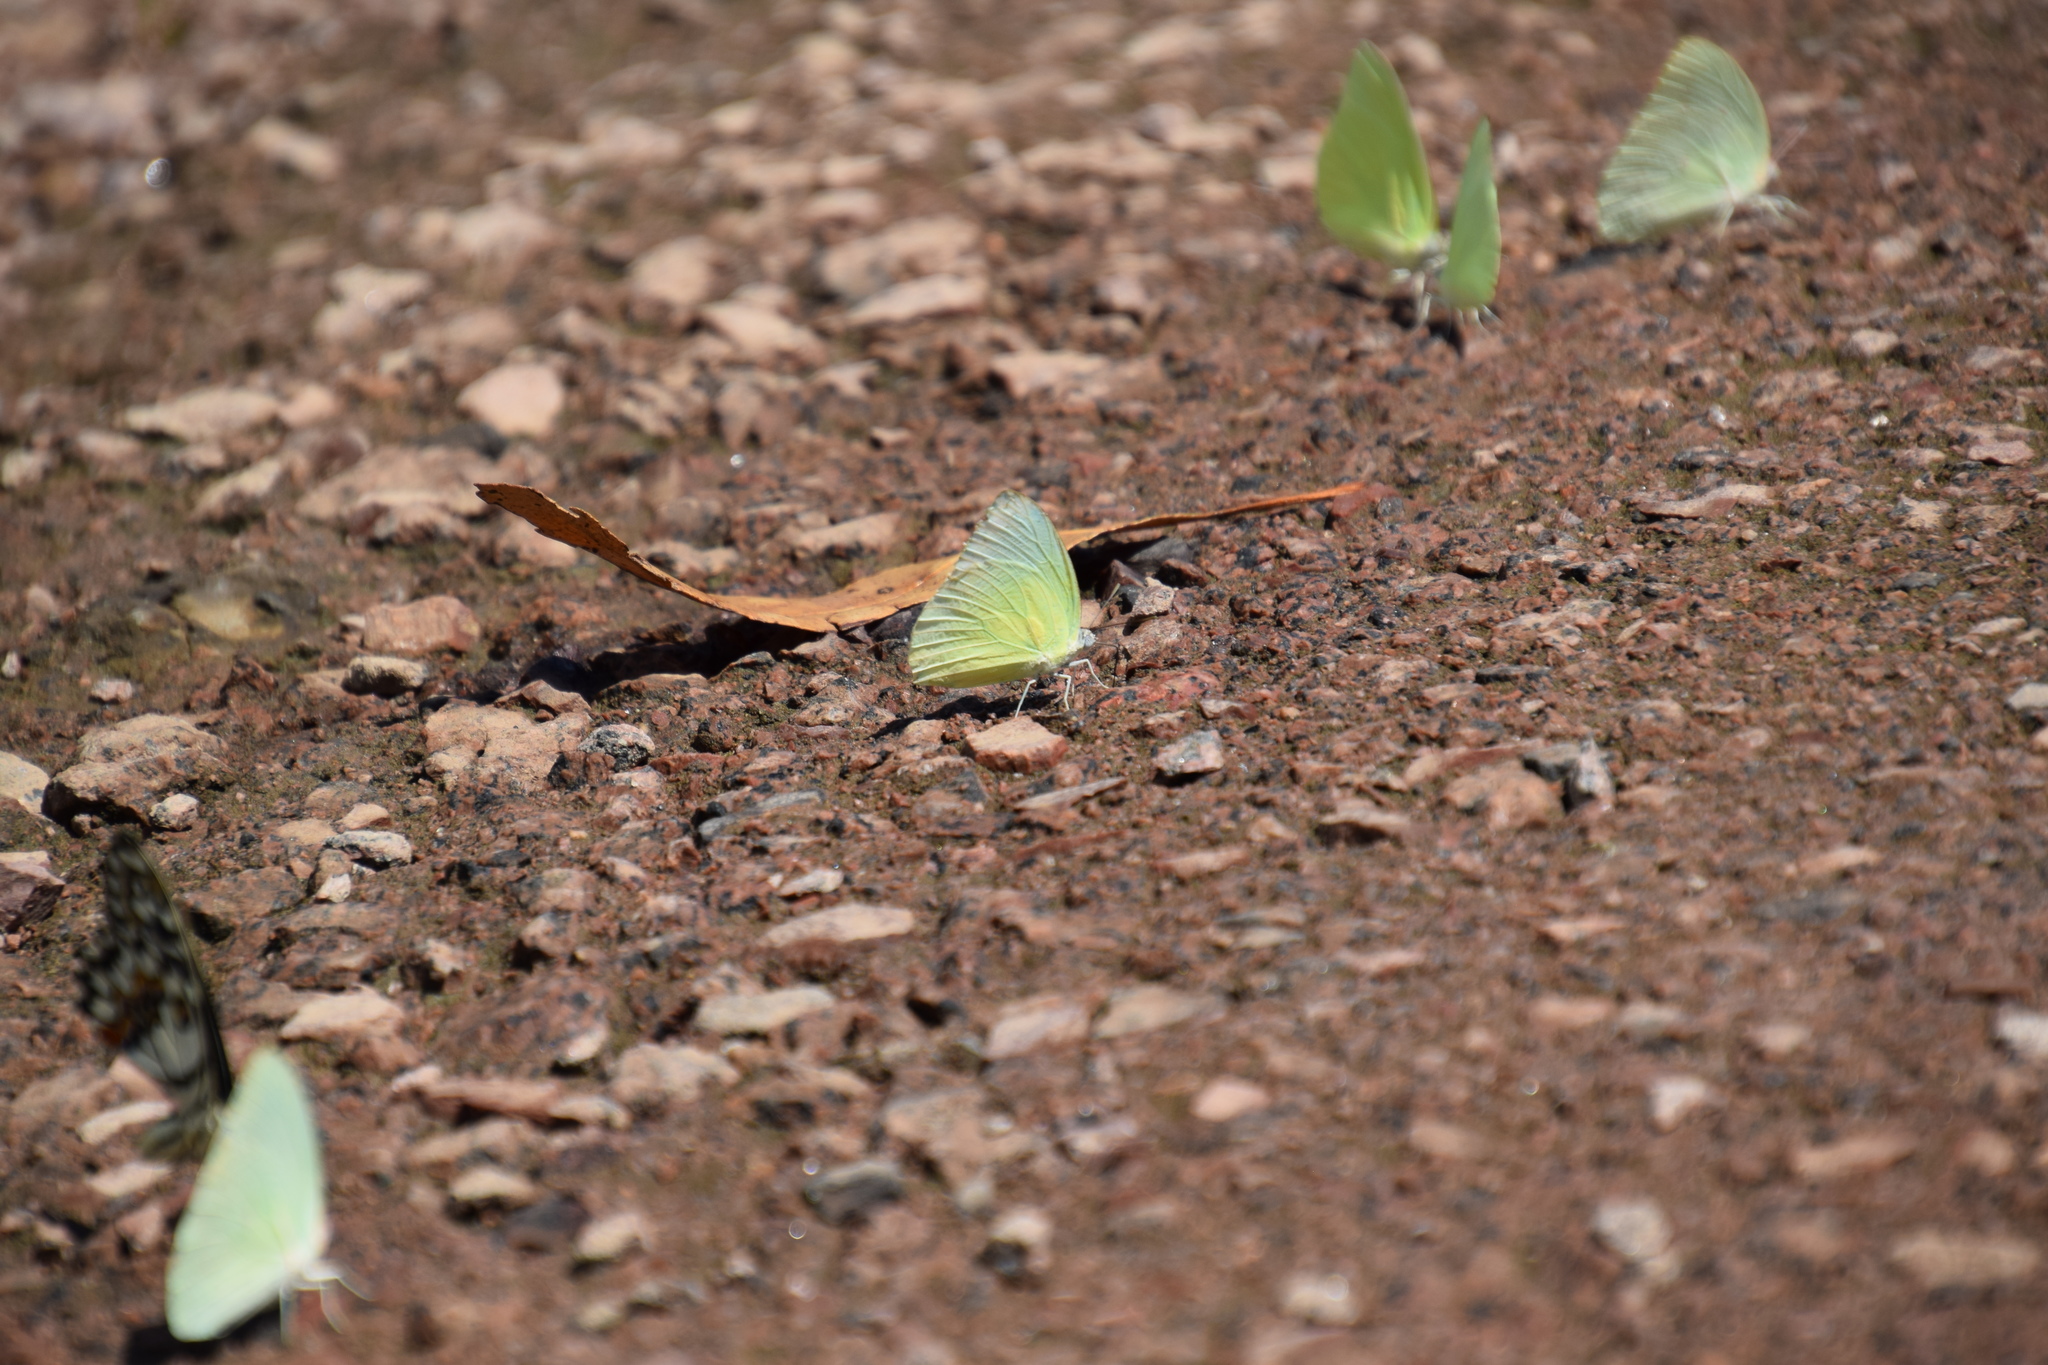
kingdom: Animalia
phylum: Arthropoda
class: Insecta
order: Lepidoptera
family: Pieridae
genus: Catopsilia
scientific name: Catopsilia pomona
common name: Common emigrant
